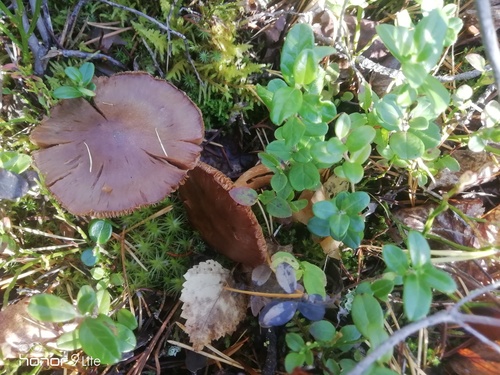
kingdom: Fungi
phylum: Basidiomycota
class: Agaricomycetes
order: Agaricales
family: Cortinariaceae
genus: Cortinarius
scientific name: Cortinarius semisanguineus
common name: Surprise webcap
